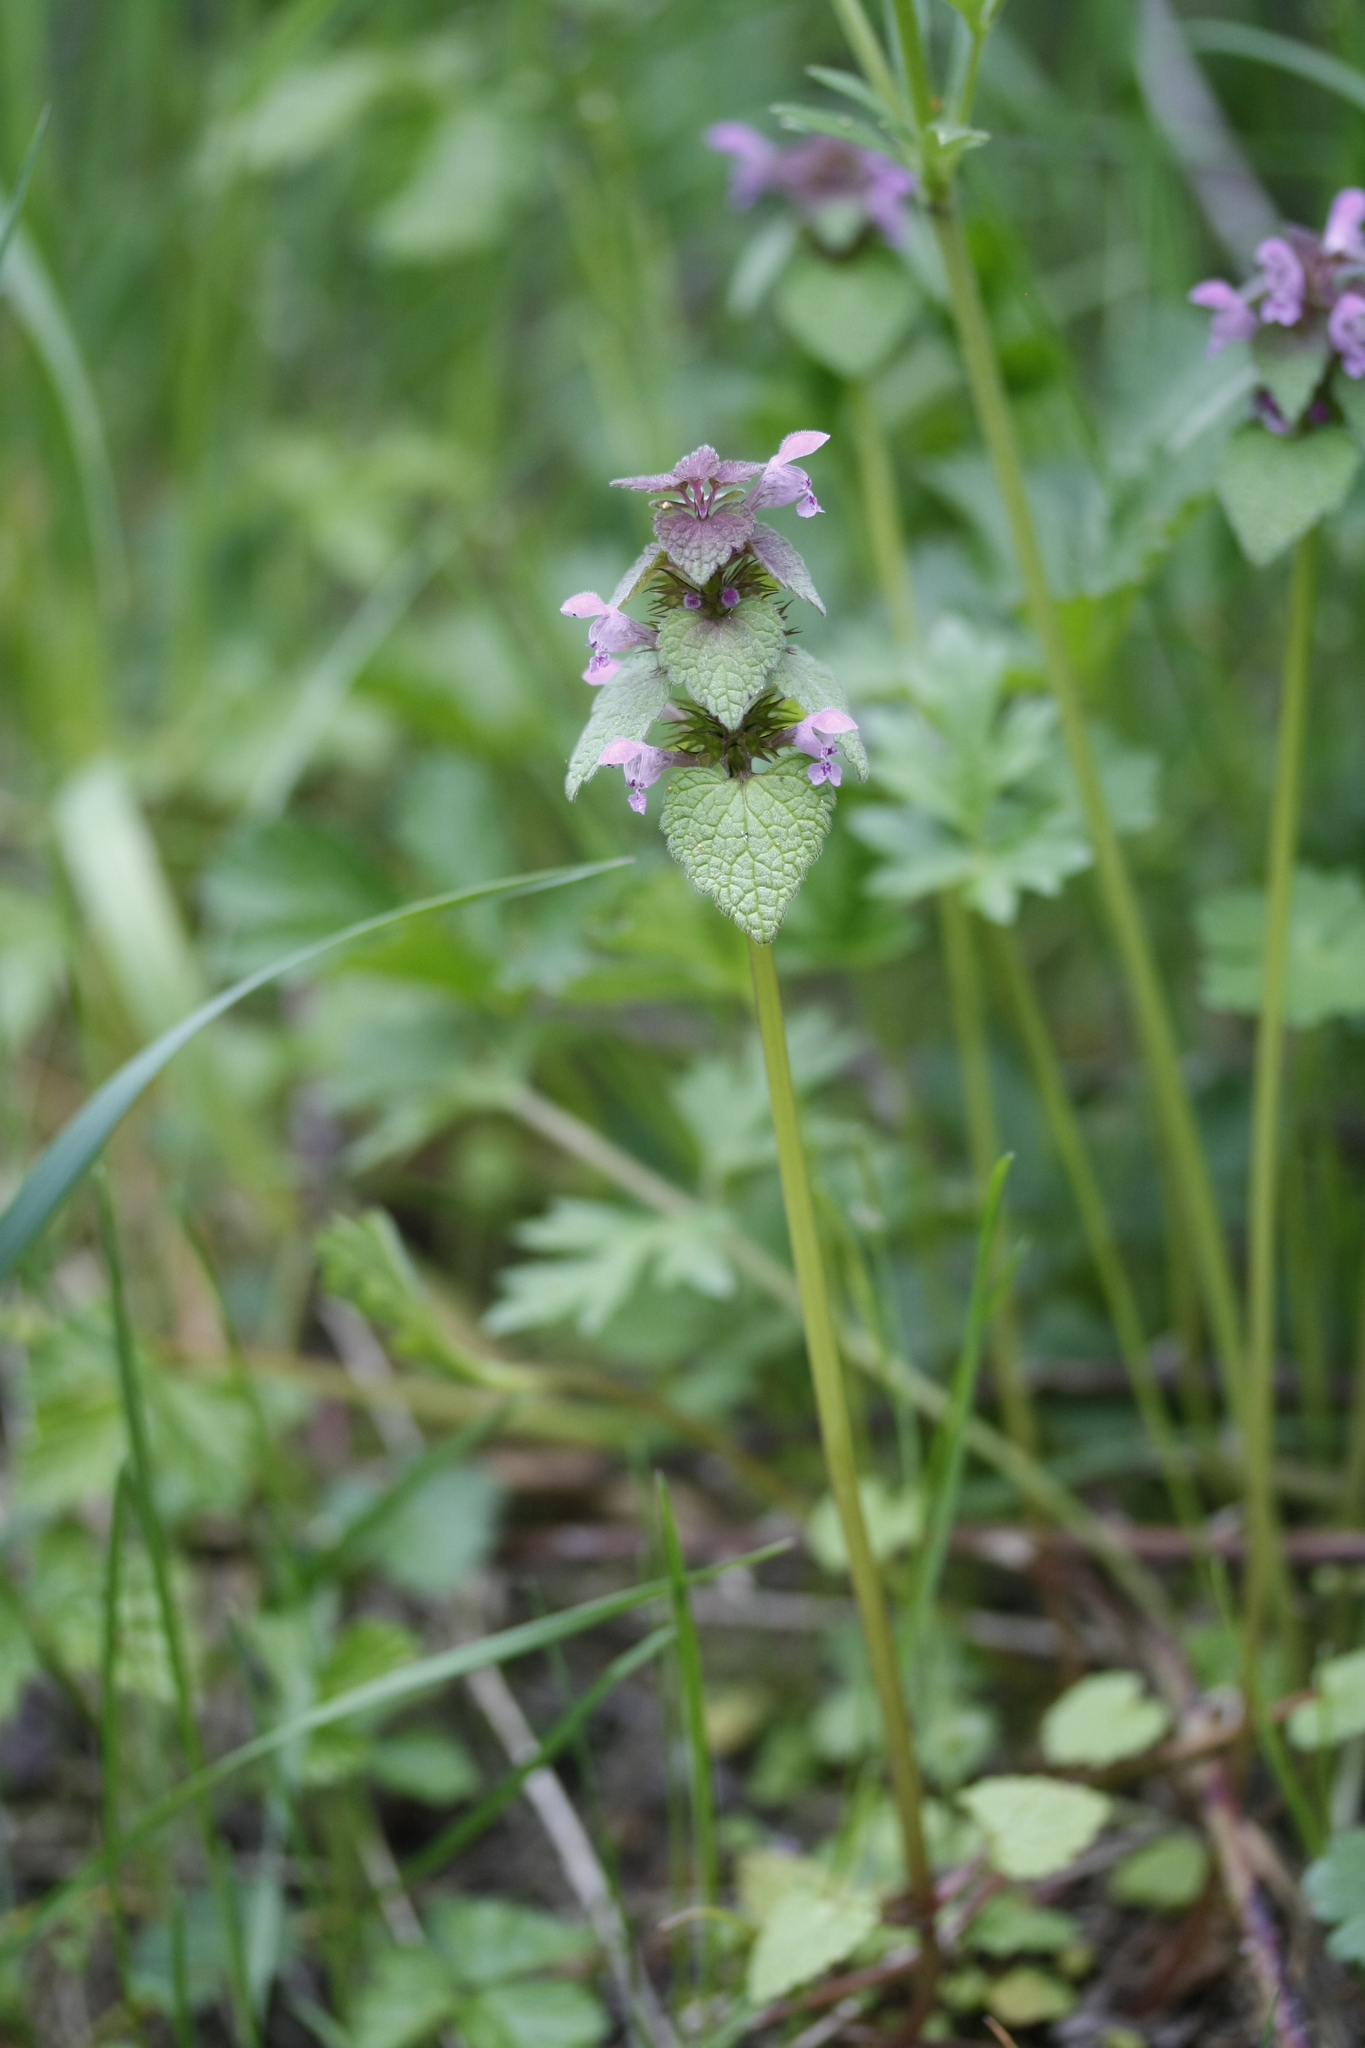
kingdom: Plantae
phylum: Tracheophyta
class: Magnoliopsida
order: Lamiales
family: Lamiaceae
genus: Lamium
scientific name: Lamium purpureum
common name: Red dead-nettle
